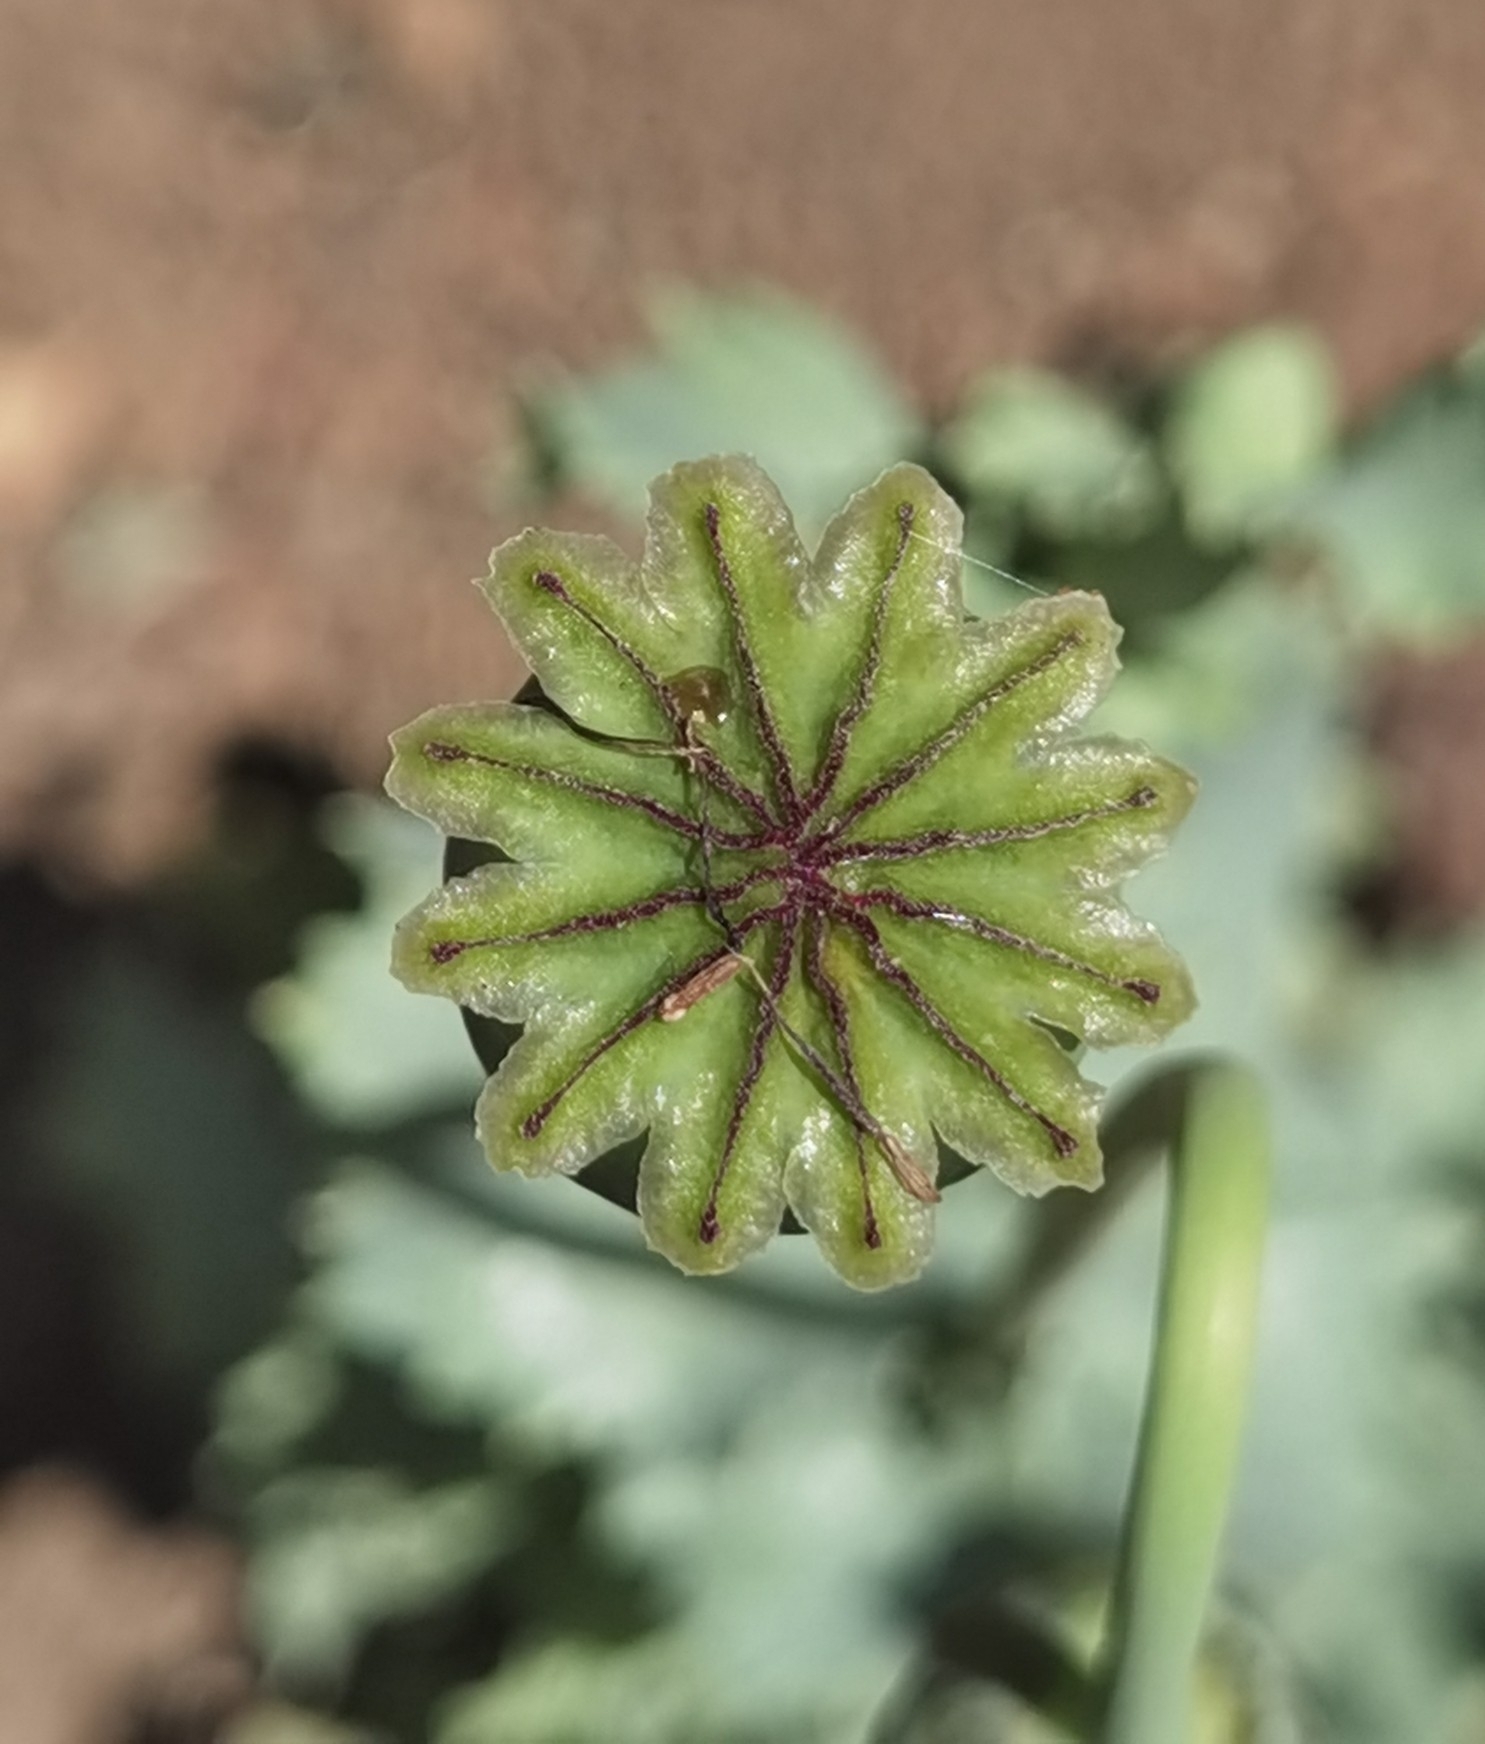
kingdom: Plantae
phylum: Tracheophyta
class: Magnoliopsida
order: Ranunculales
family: Papaveraceae
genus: Papaver
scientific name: Papaver somniferum
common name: Opium poppy
